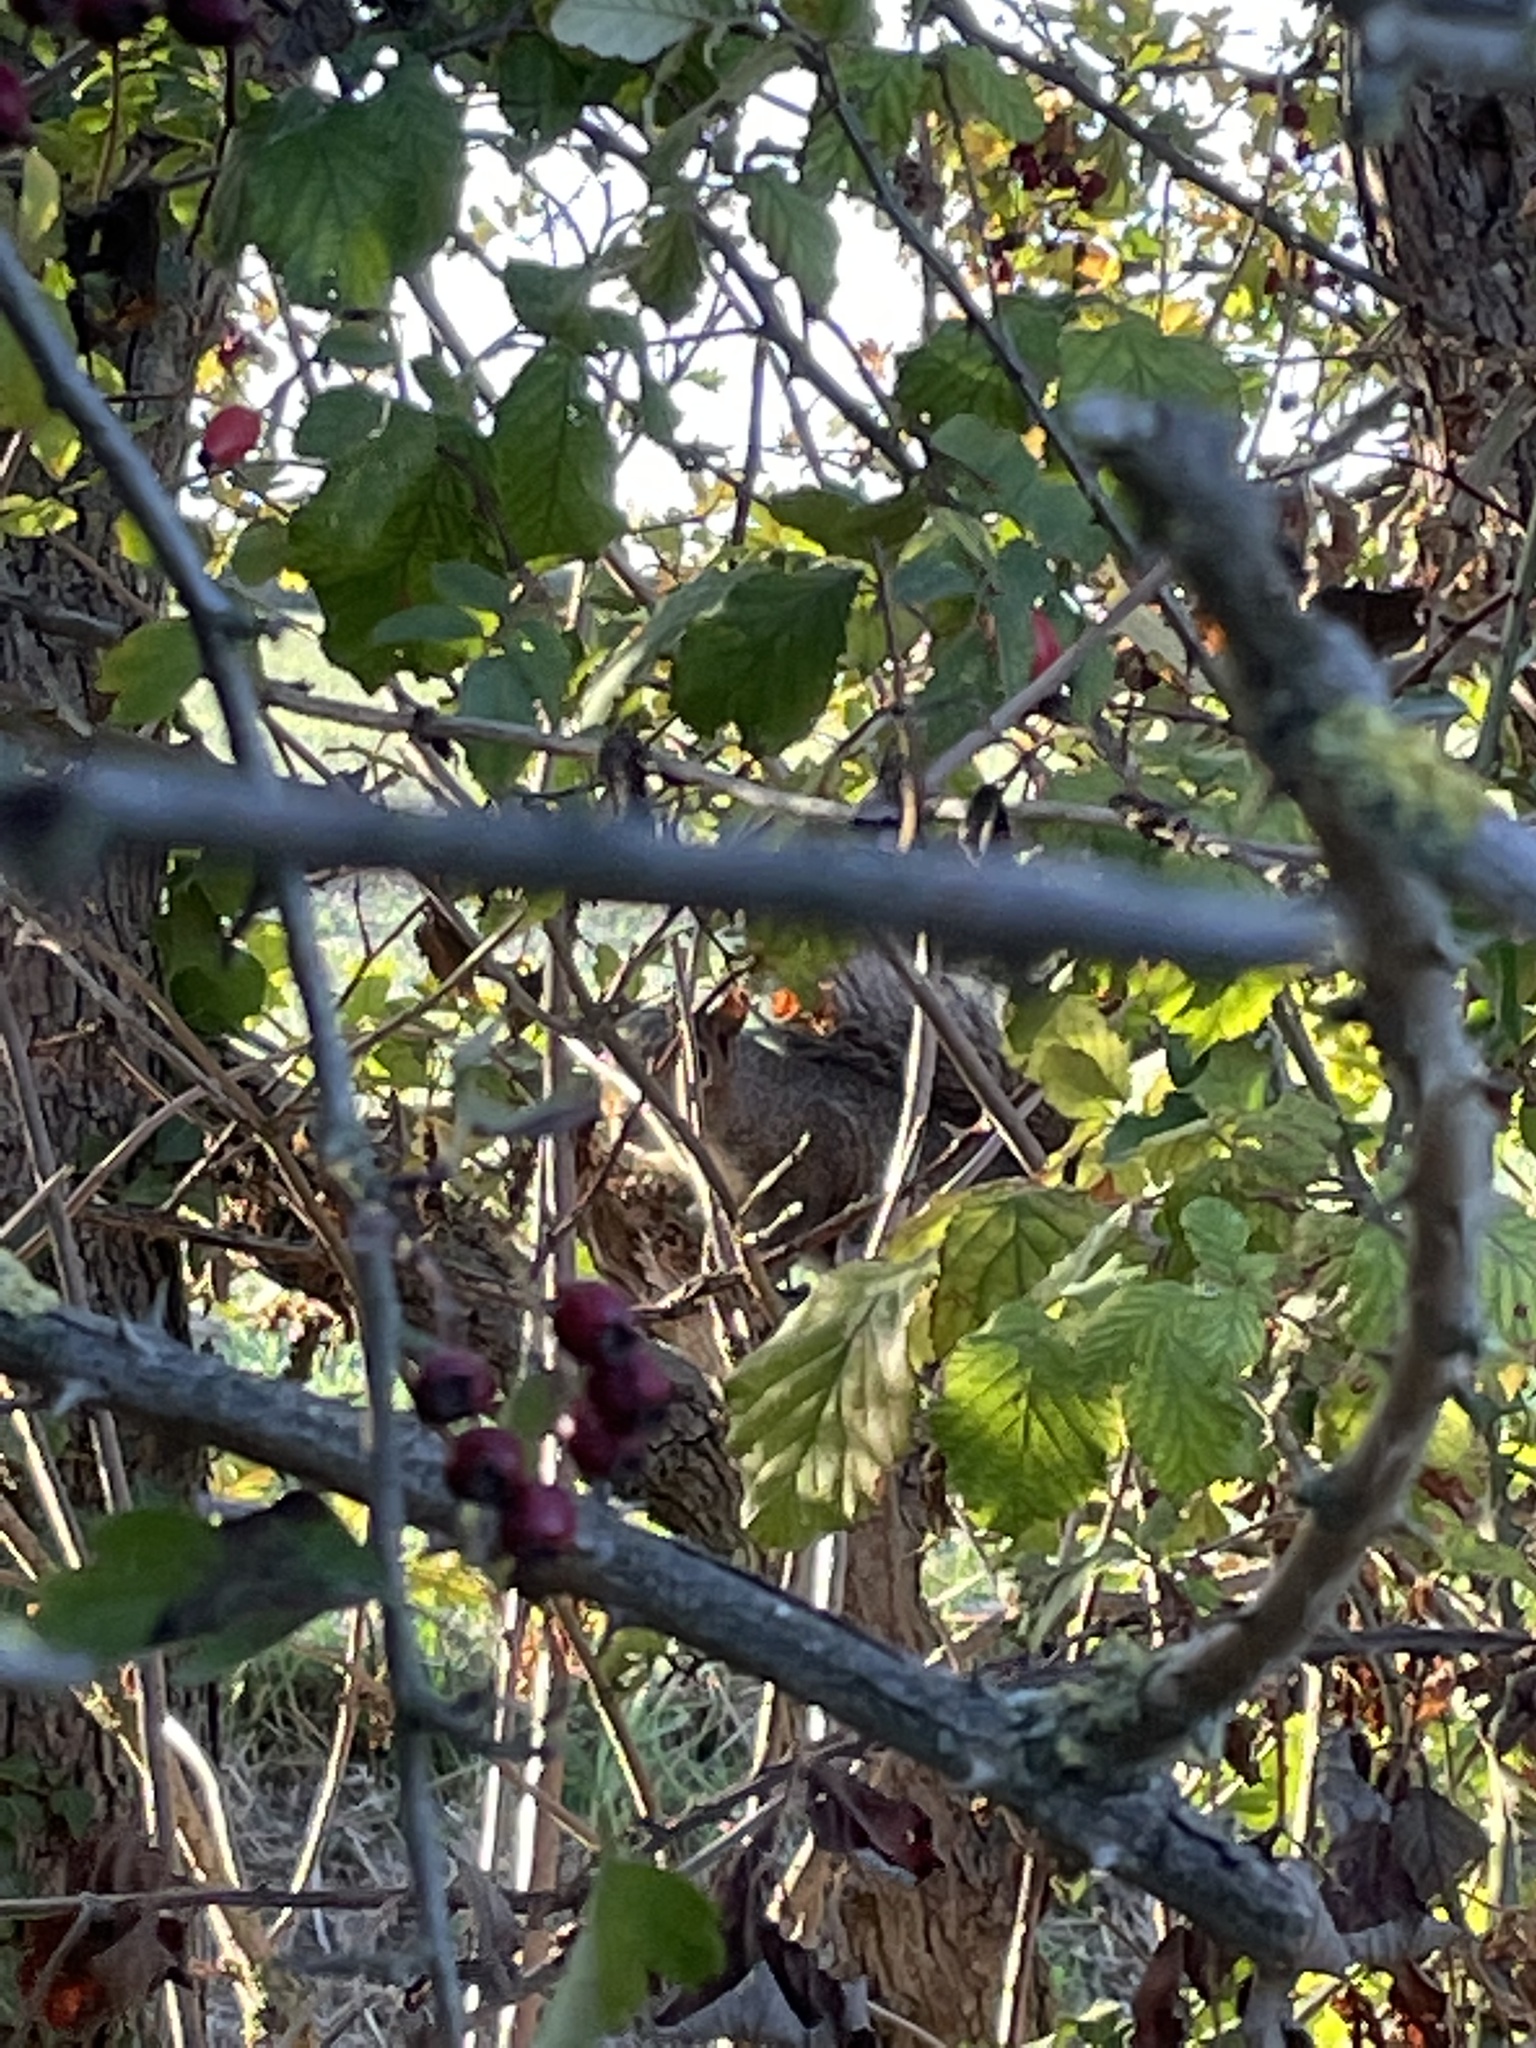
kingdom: Animalia
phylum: Chordata
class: Mammalia
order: Rodentia
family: Sciuridae
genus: Sciurus
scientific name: Sciurus carolinensis
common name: Eastern gray squirrel
